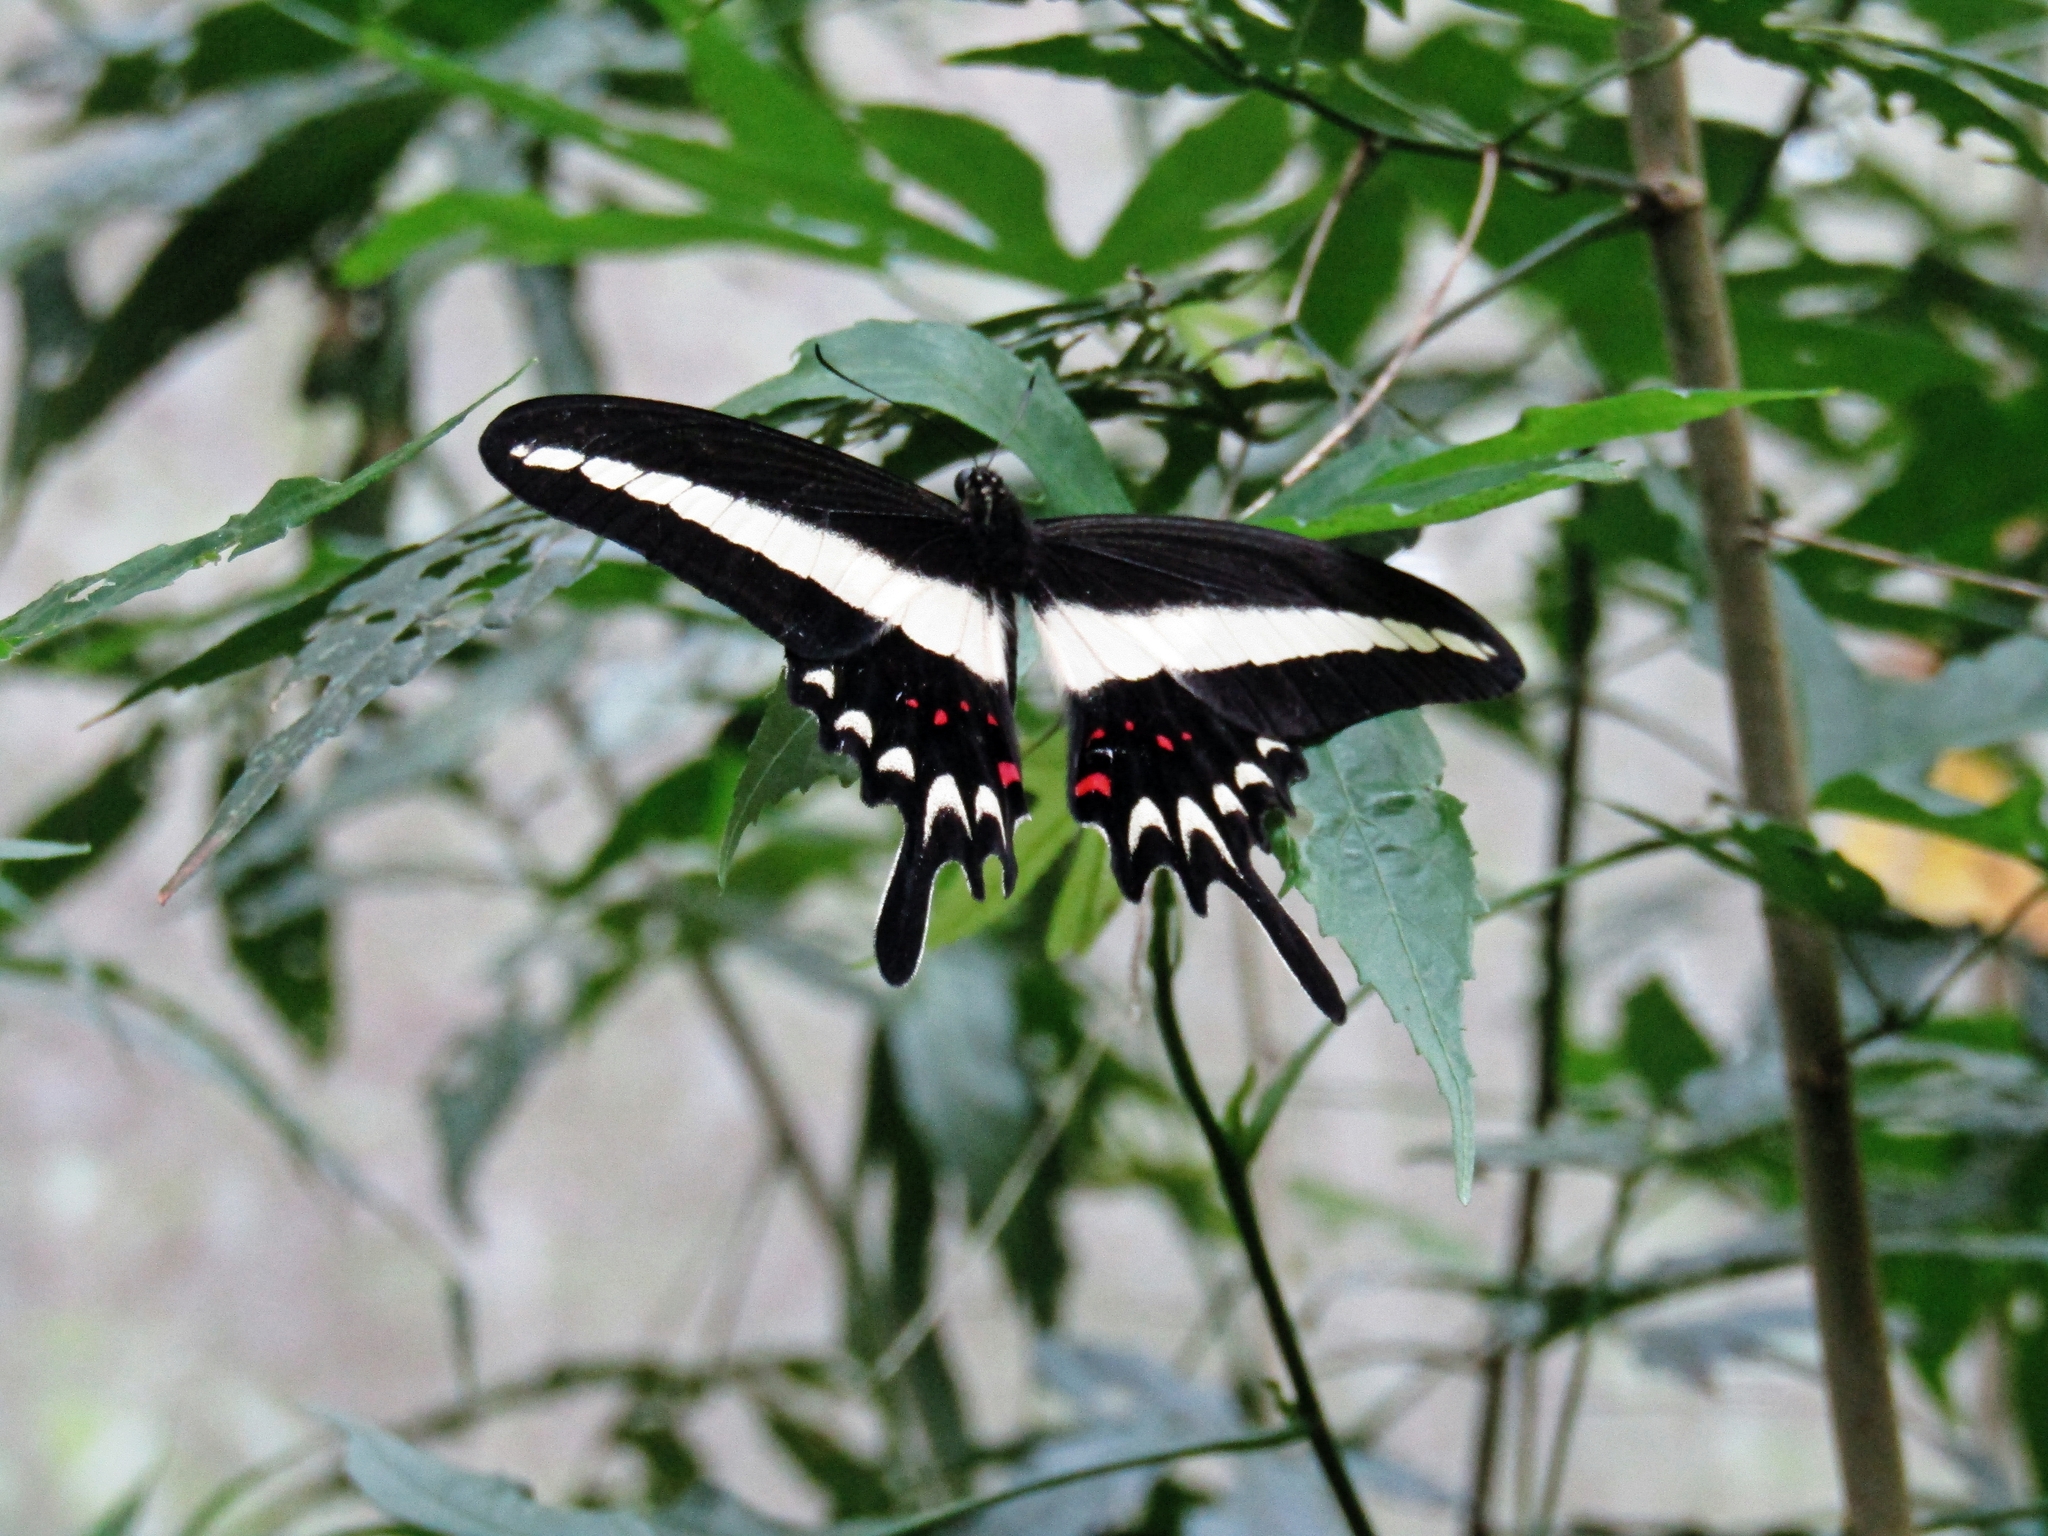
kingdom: Animalia
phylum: Arthropoda
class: Insecta
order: Lepidoptera
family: Papilionidae
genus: Heraclides
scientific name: Heraclides hectorides
